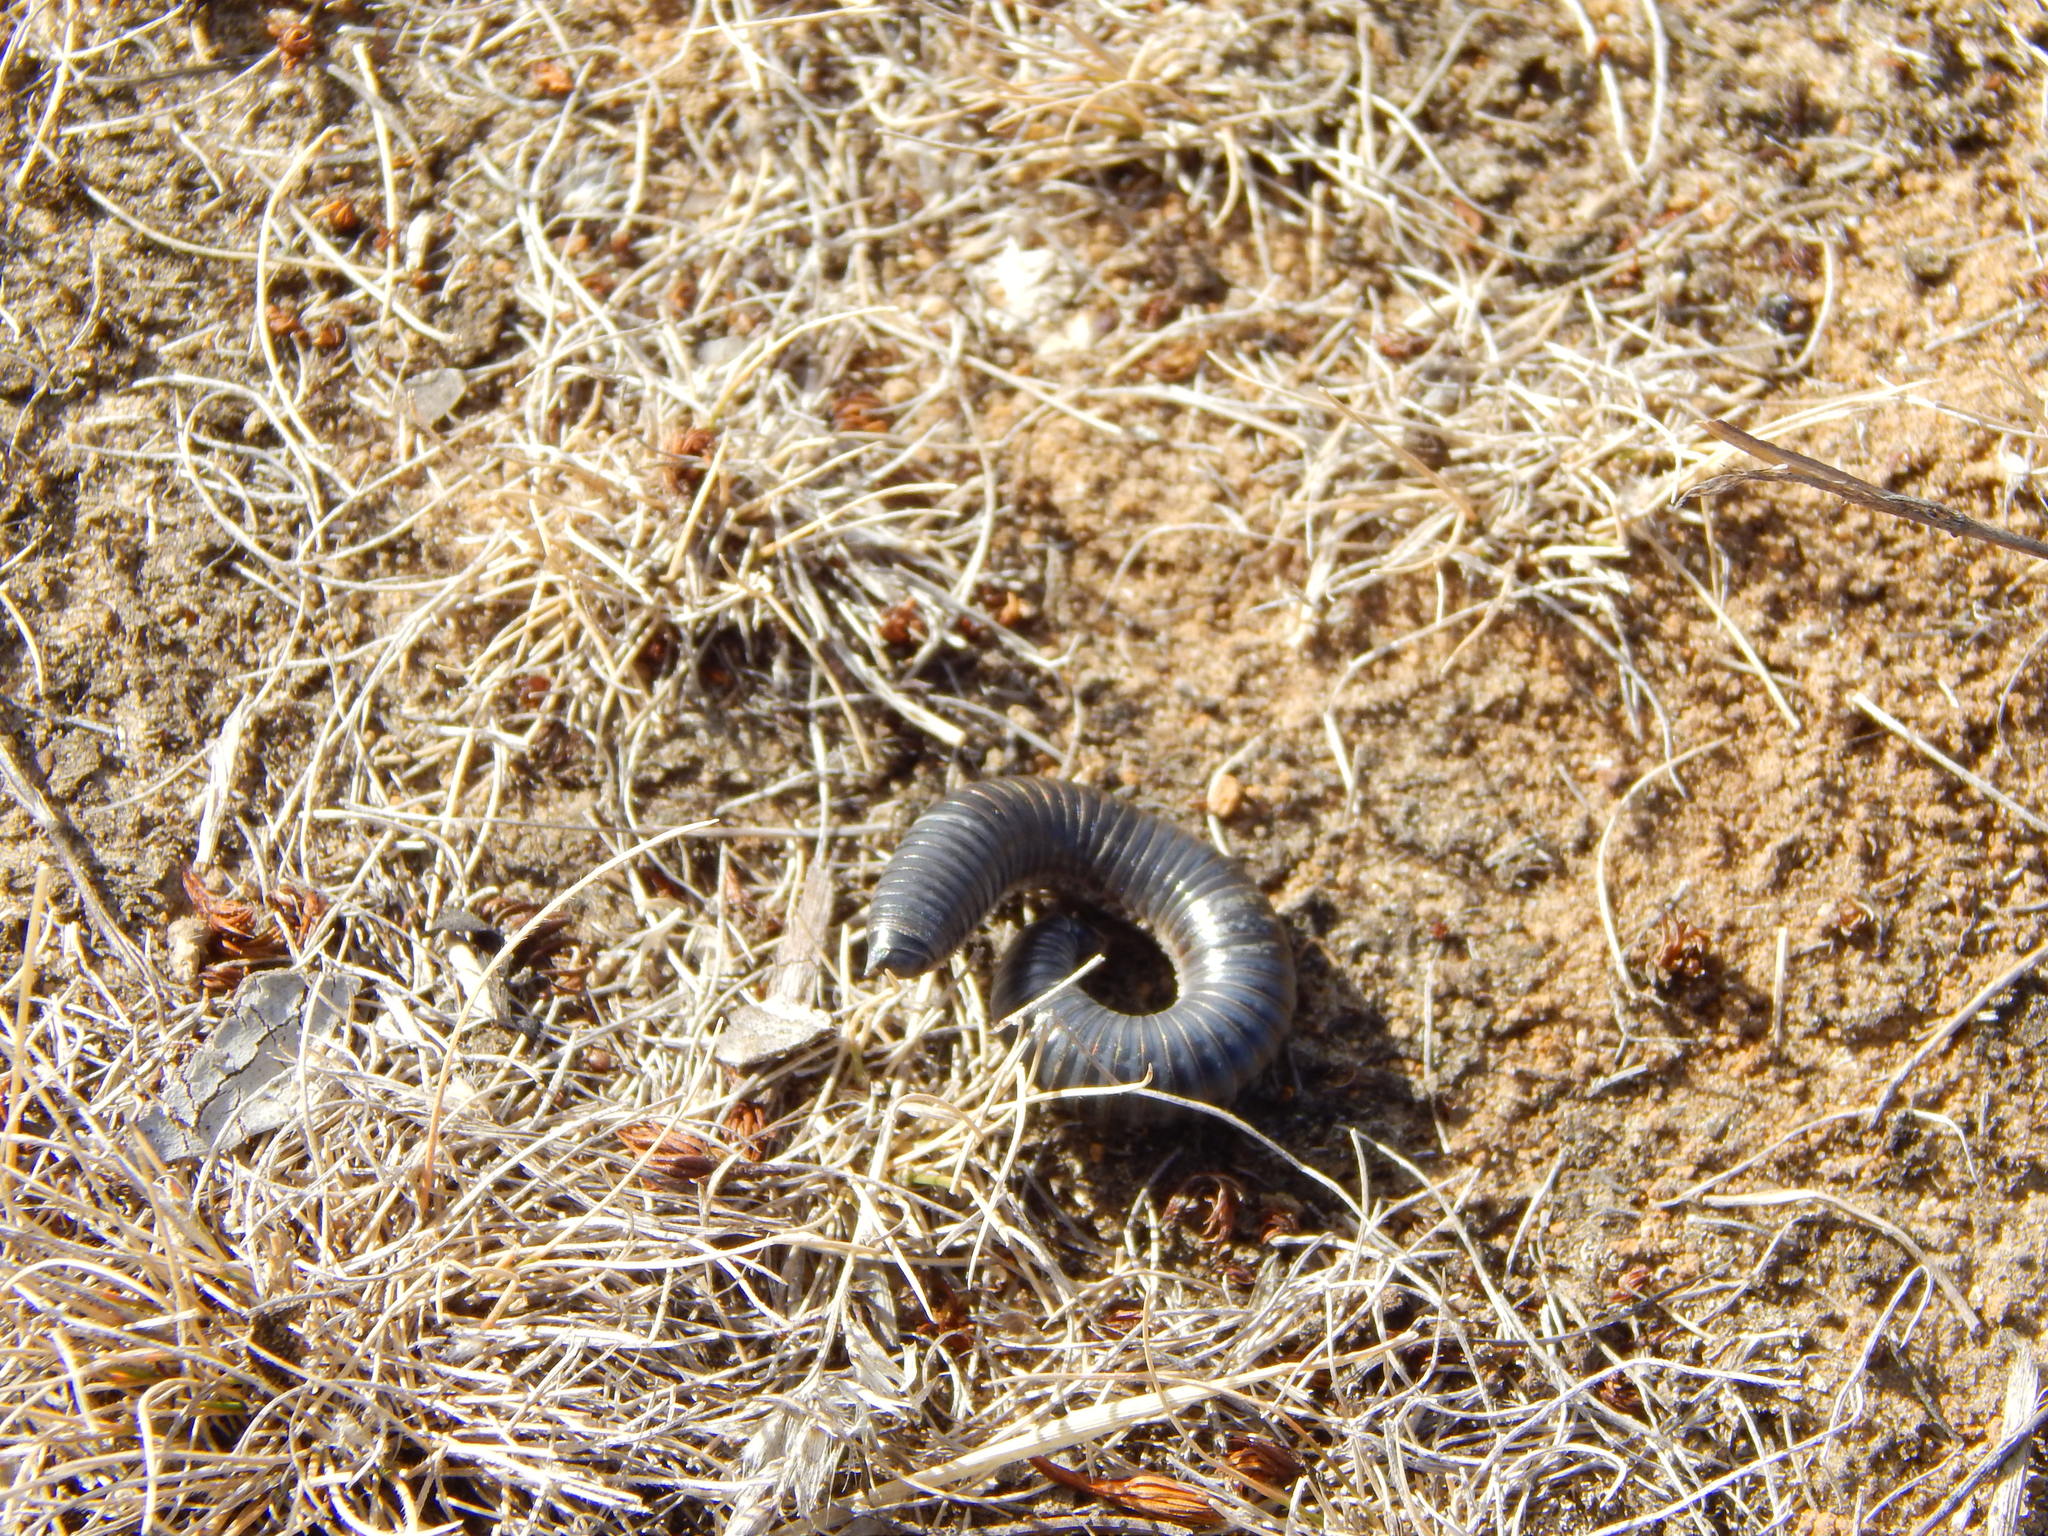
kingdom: Animalia
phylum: Arthropoda
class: Diplopoda
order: Julida
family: Julidae
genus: Ommatoiulus
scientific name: Ommatoiulus moreleti
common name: Portuguese millipede
